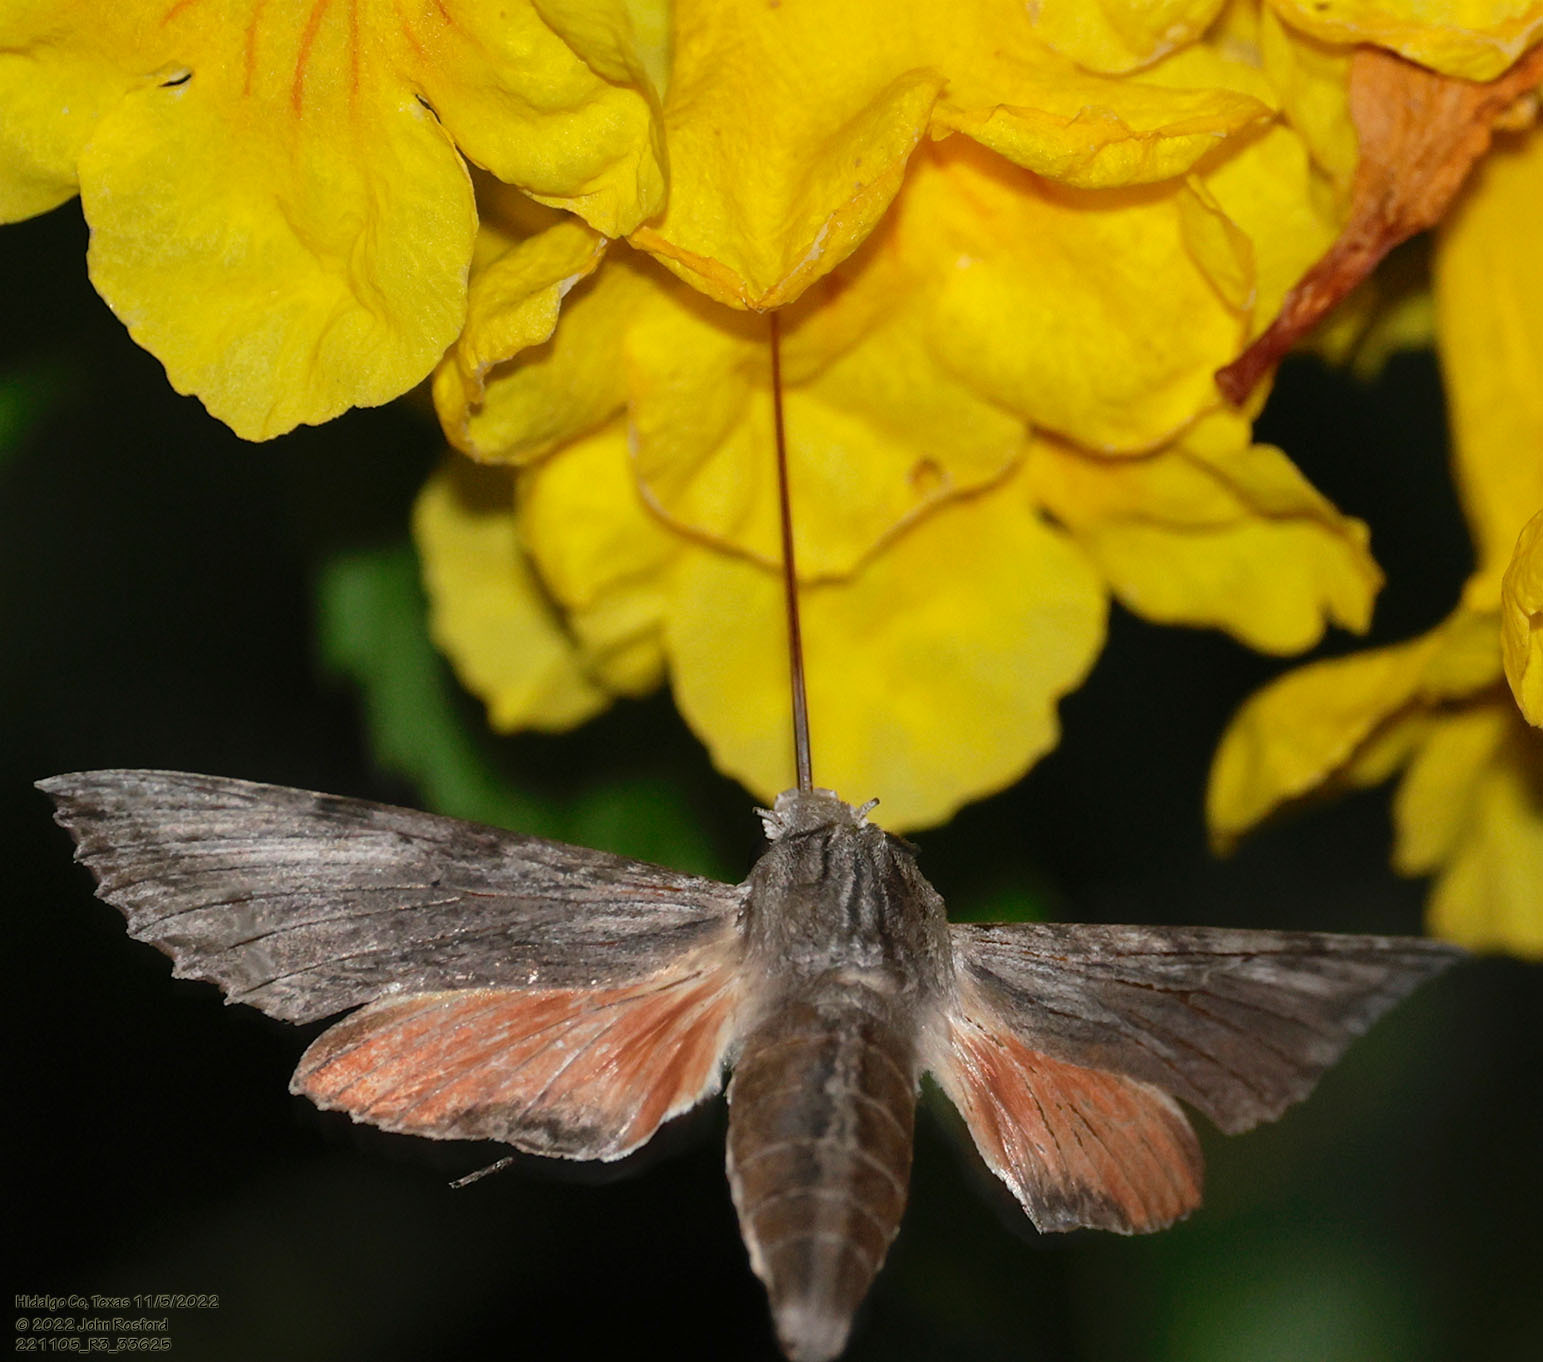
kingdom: Animalia
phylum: Arthropoda
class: Insecta
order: Lepidoptera
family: Sphingidae
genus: Erinnyis
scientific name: Erinnyis obscura
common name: Obscure sphinx
